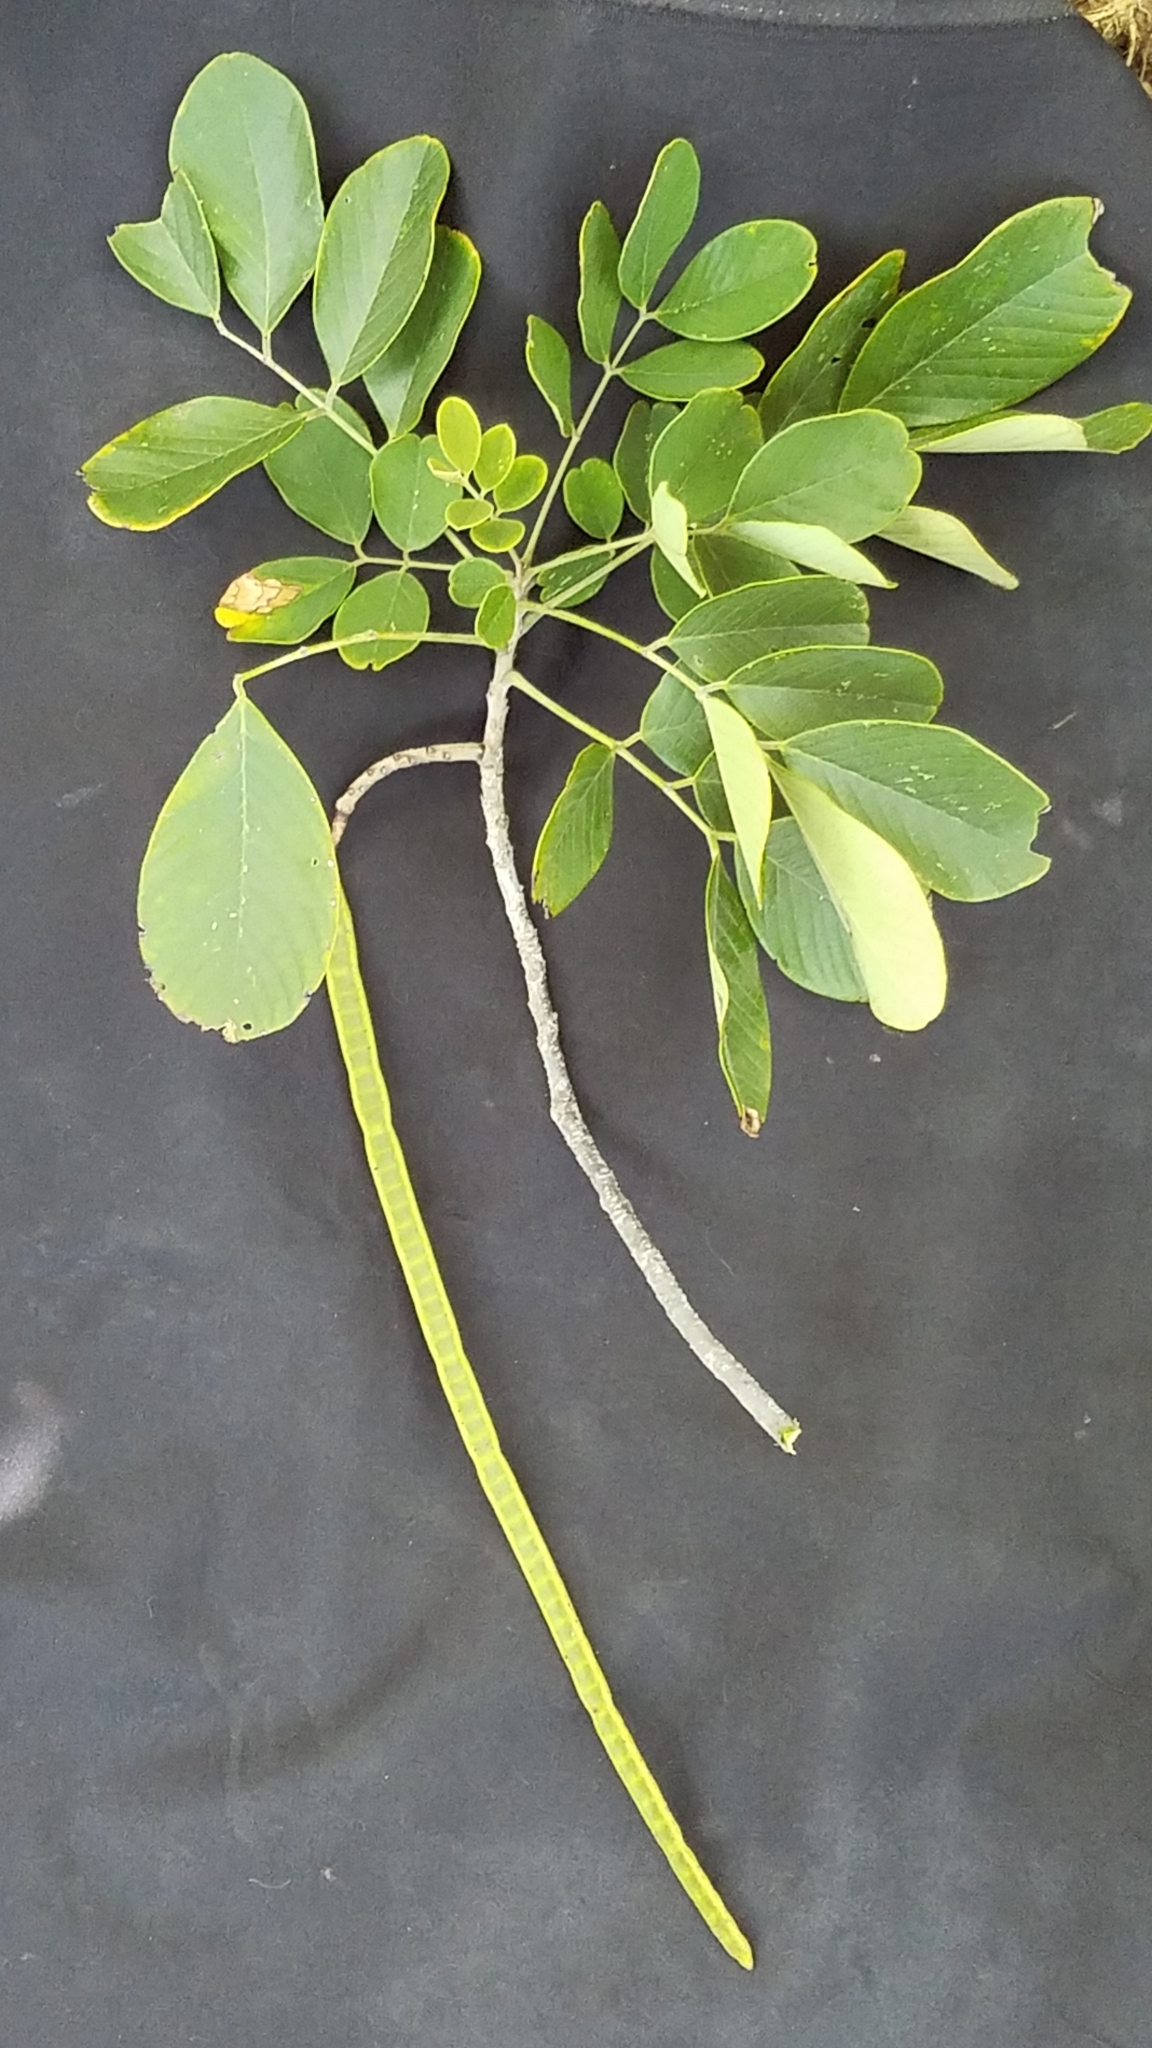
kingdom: Plantae
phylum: Tracheophyta
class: Magnoliopsida
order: Fabales
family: Fabaceae
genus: Senna
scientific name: Senna atomaria
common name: Flor de san jose
